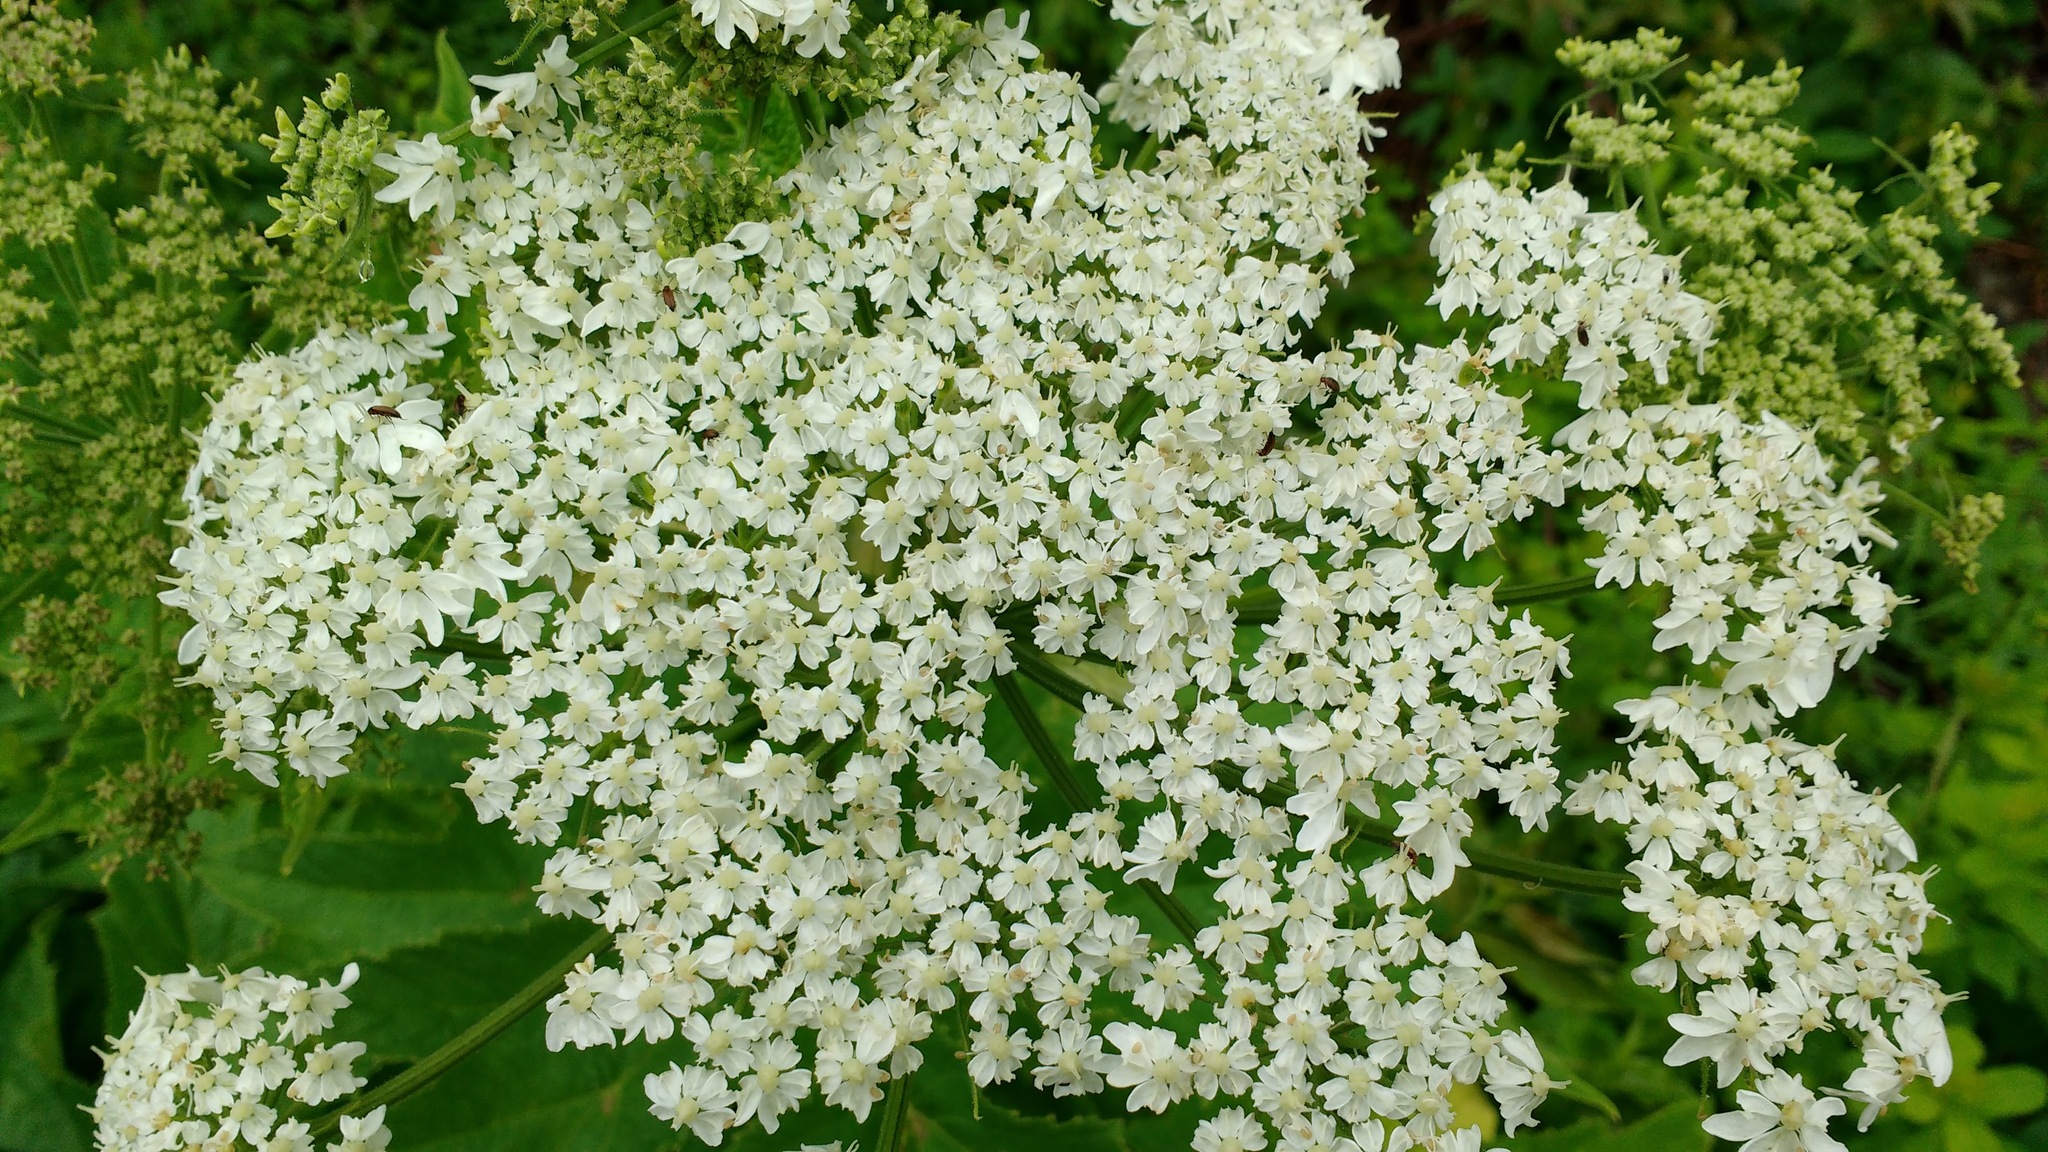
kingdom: Plantae
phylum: Tracheophyta
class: Magnoliopsida
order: Apiales
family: Apiaceae
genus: Heracleum
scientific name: Heracleum maximum
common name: American cow parsnip
